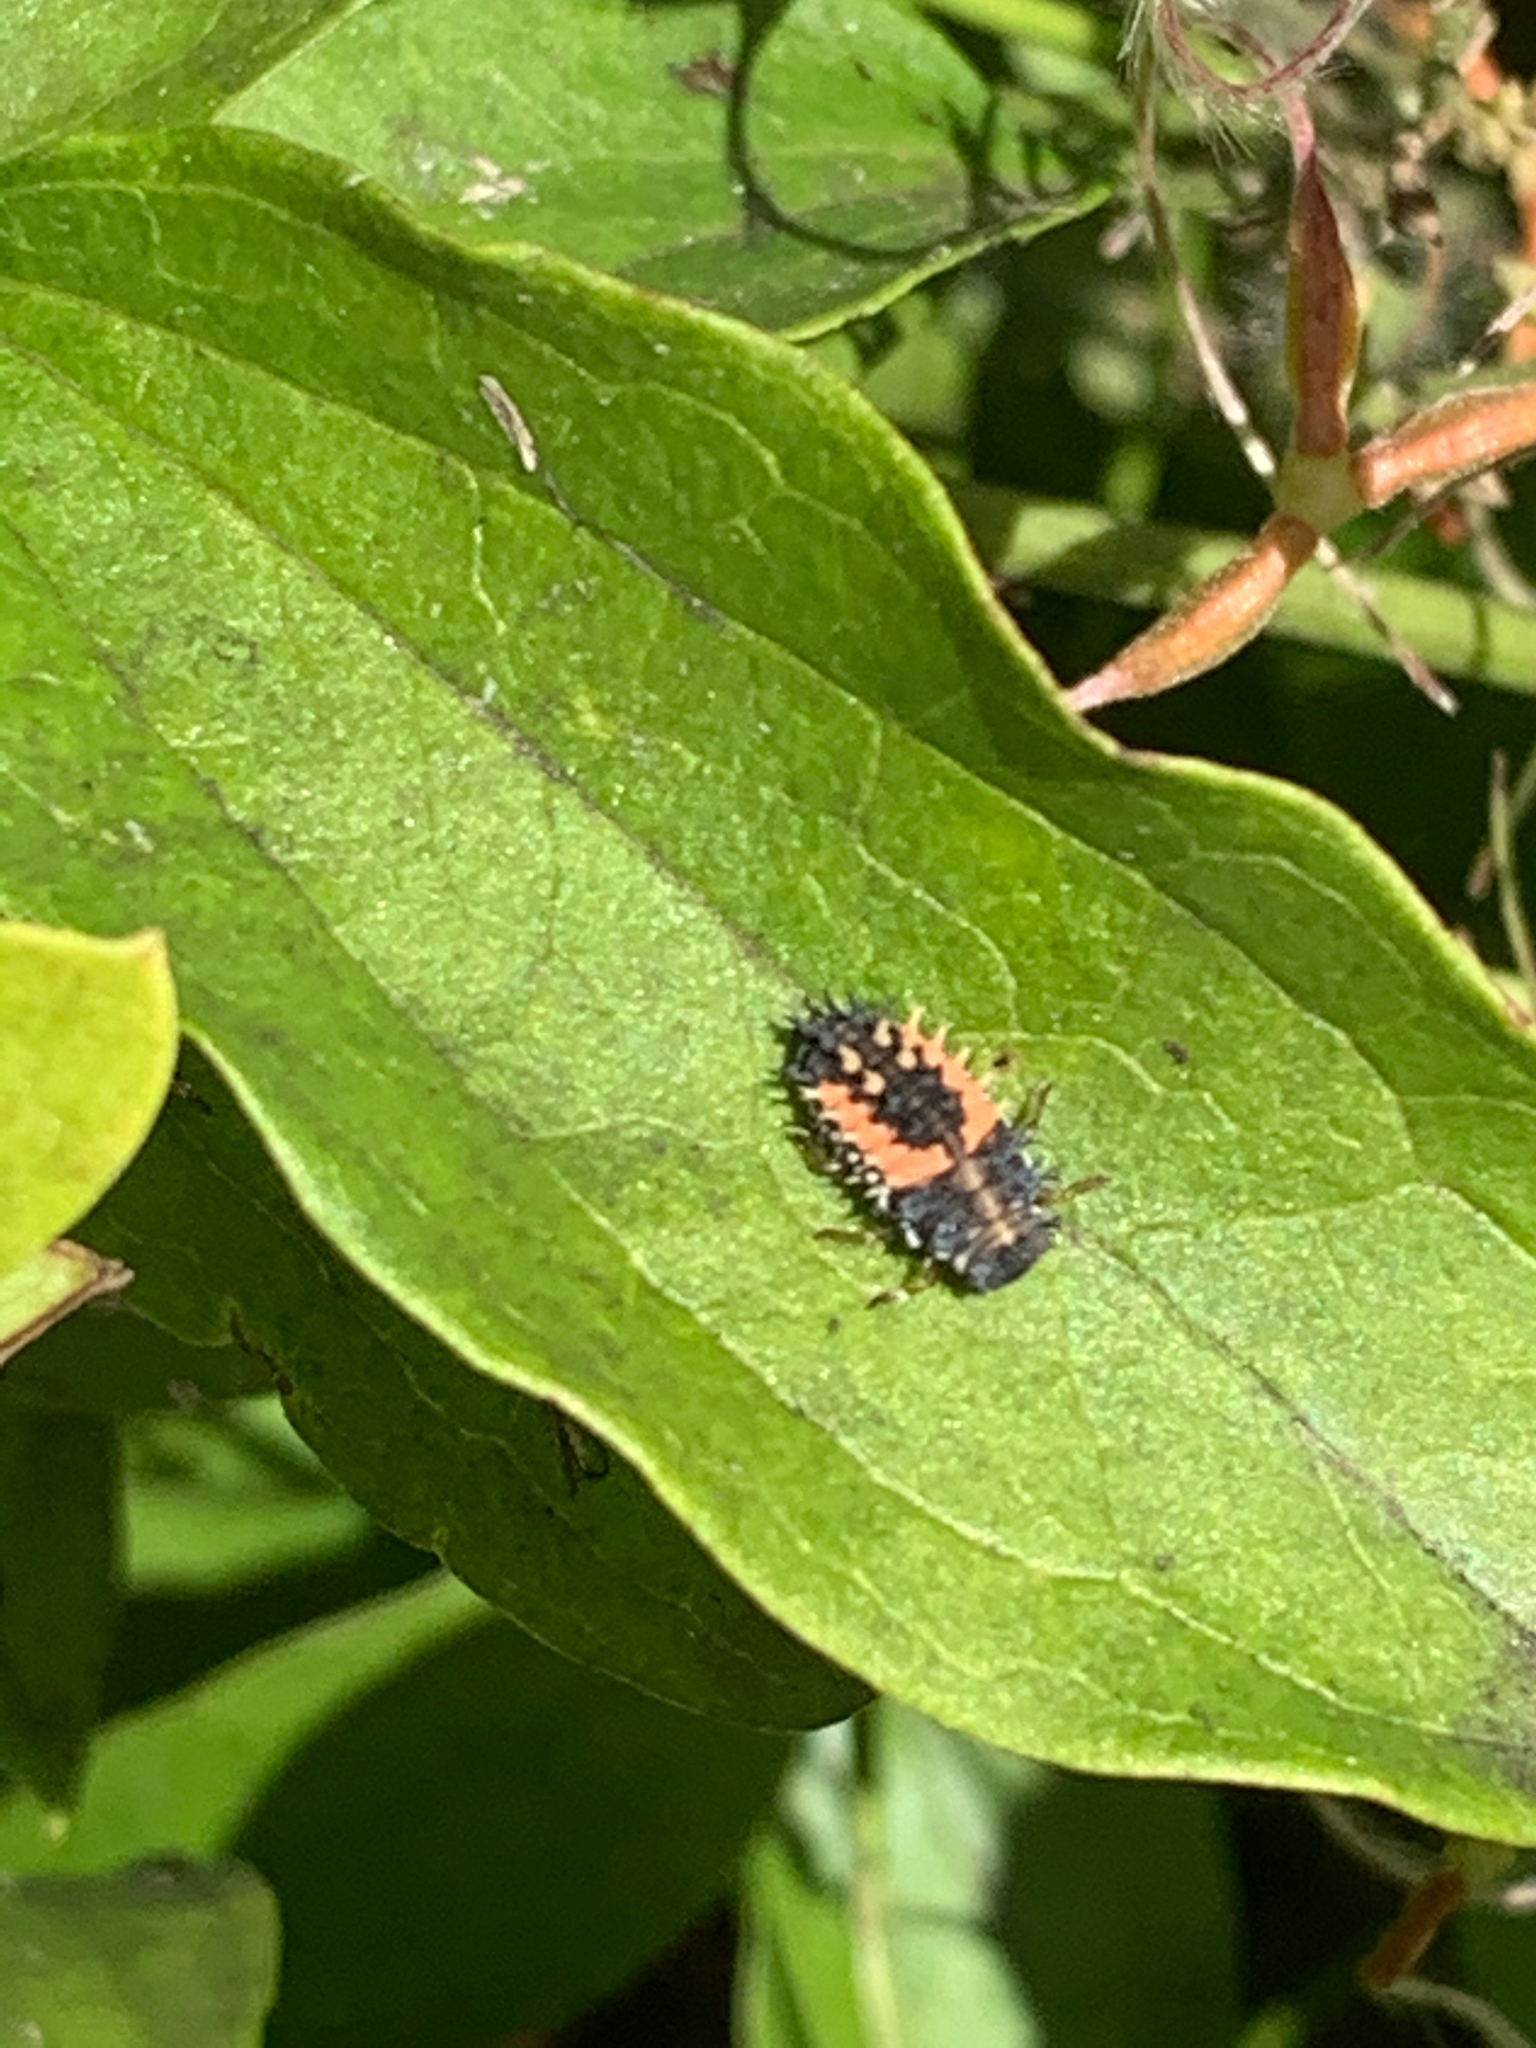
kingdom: Animalia
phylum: Arthropoda
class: Insecta
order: Coleoptera
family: Coccinellidae
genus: Harmonia
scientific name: Harmonia axyridis
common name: Harlequin ladybird
